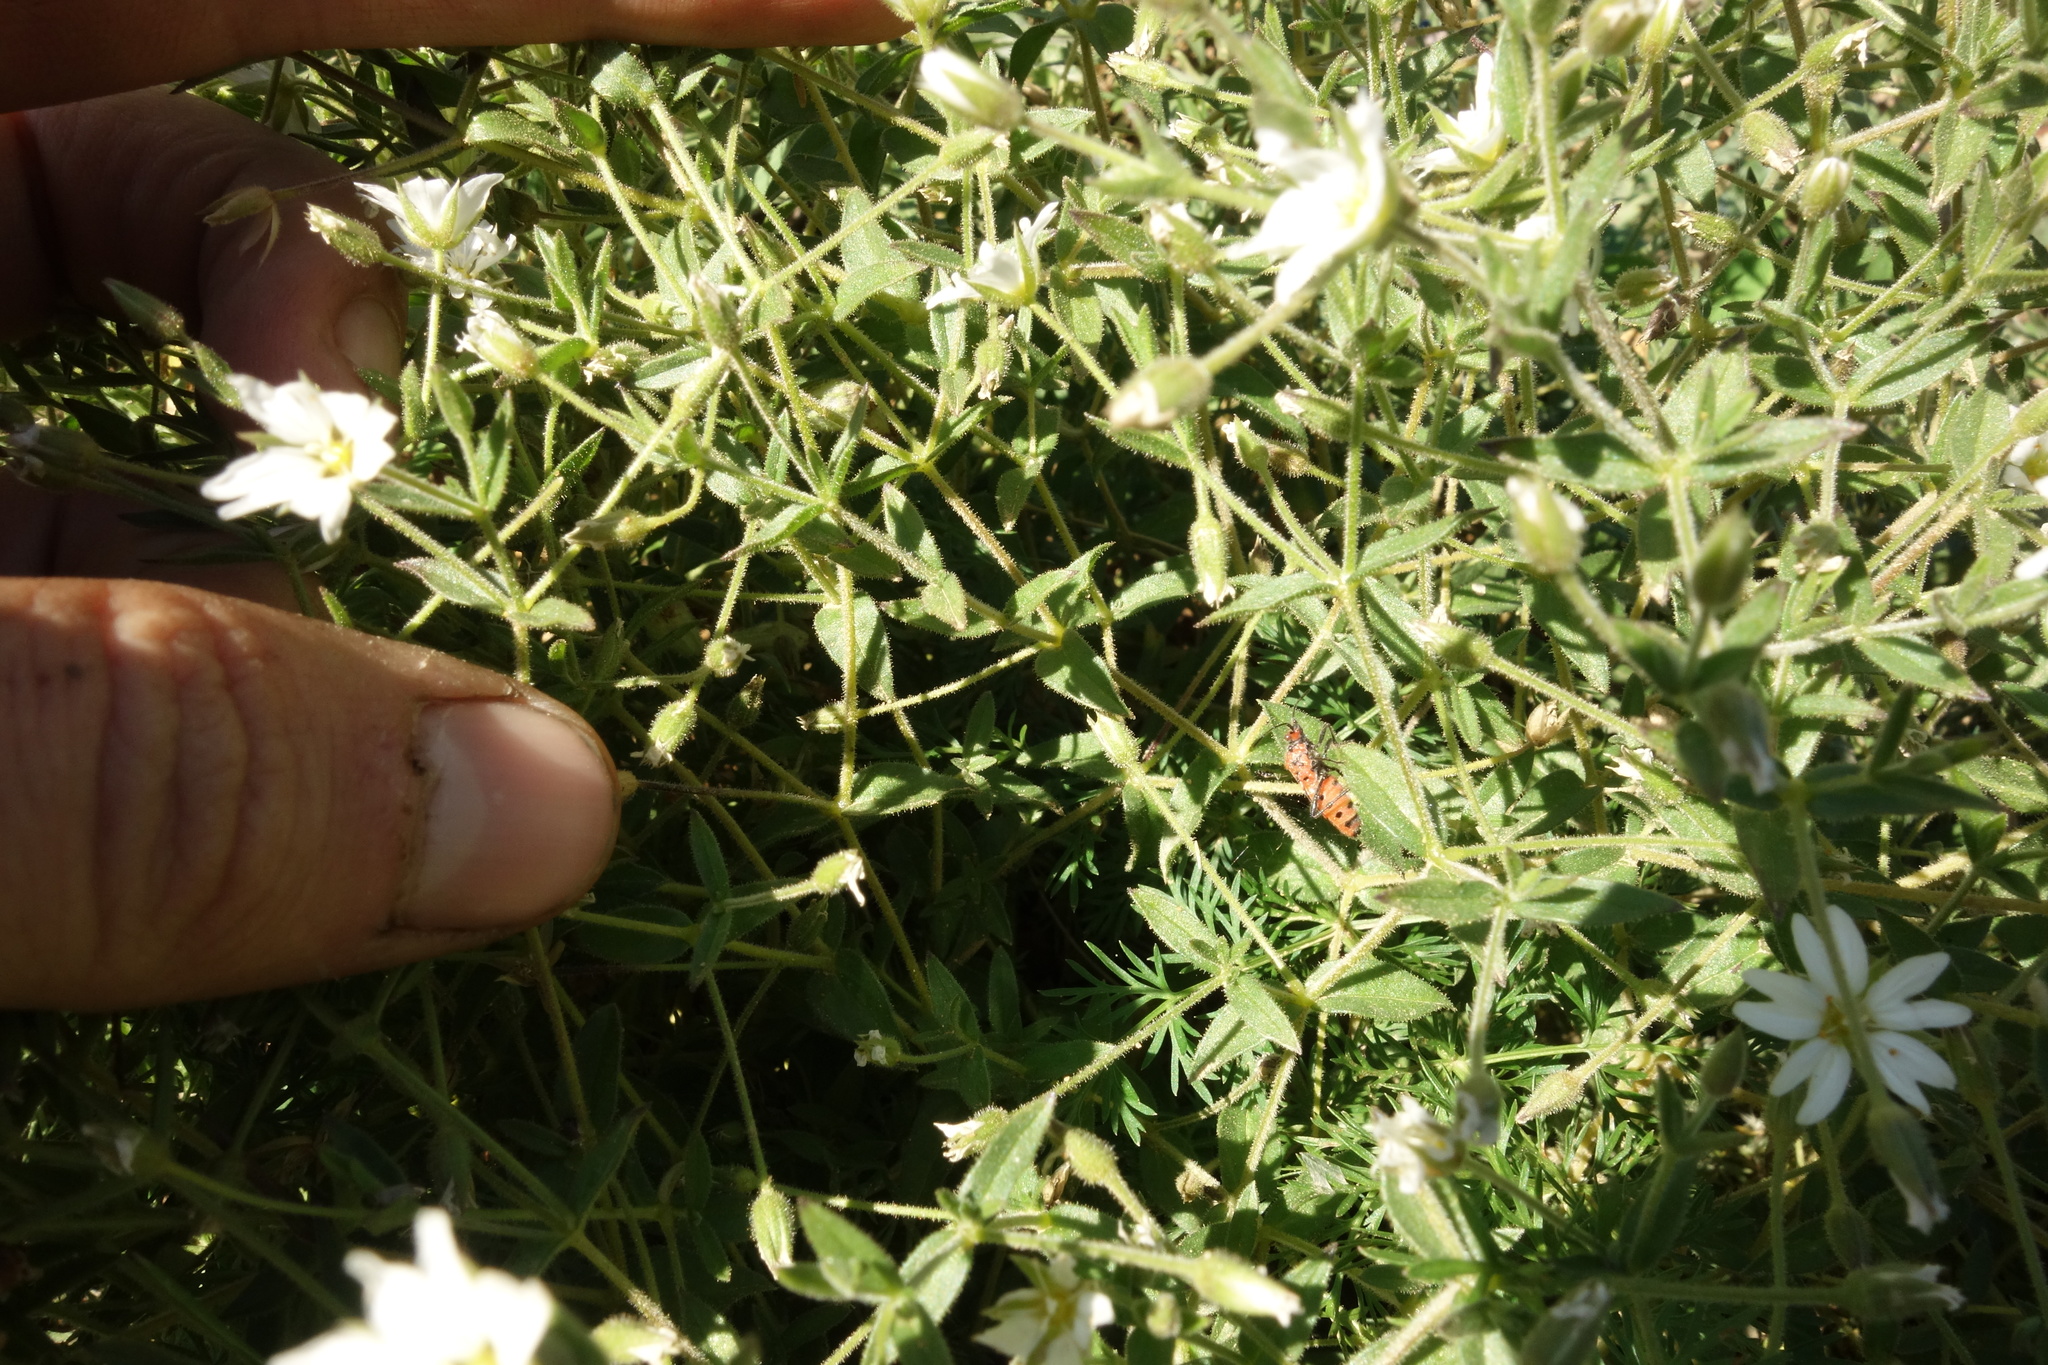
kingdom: Plantae
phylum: Tracheophyta
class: Magnoliopsida
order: Caryophyllales
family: Caryophyllaceae
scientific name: Caryophyllaceae
